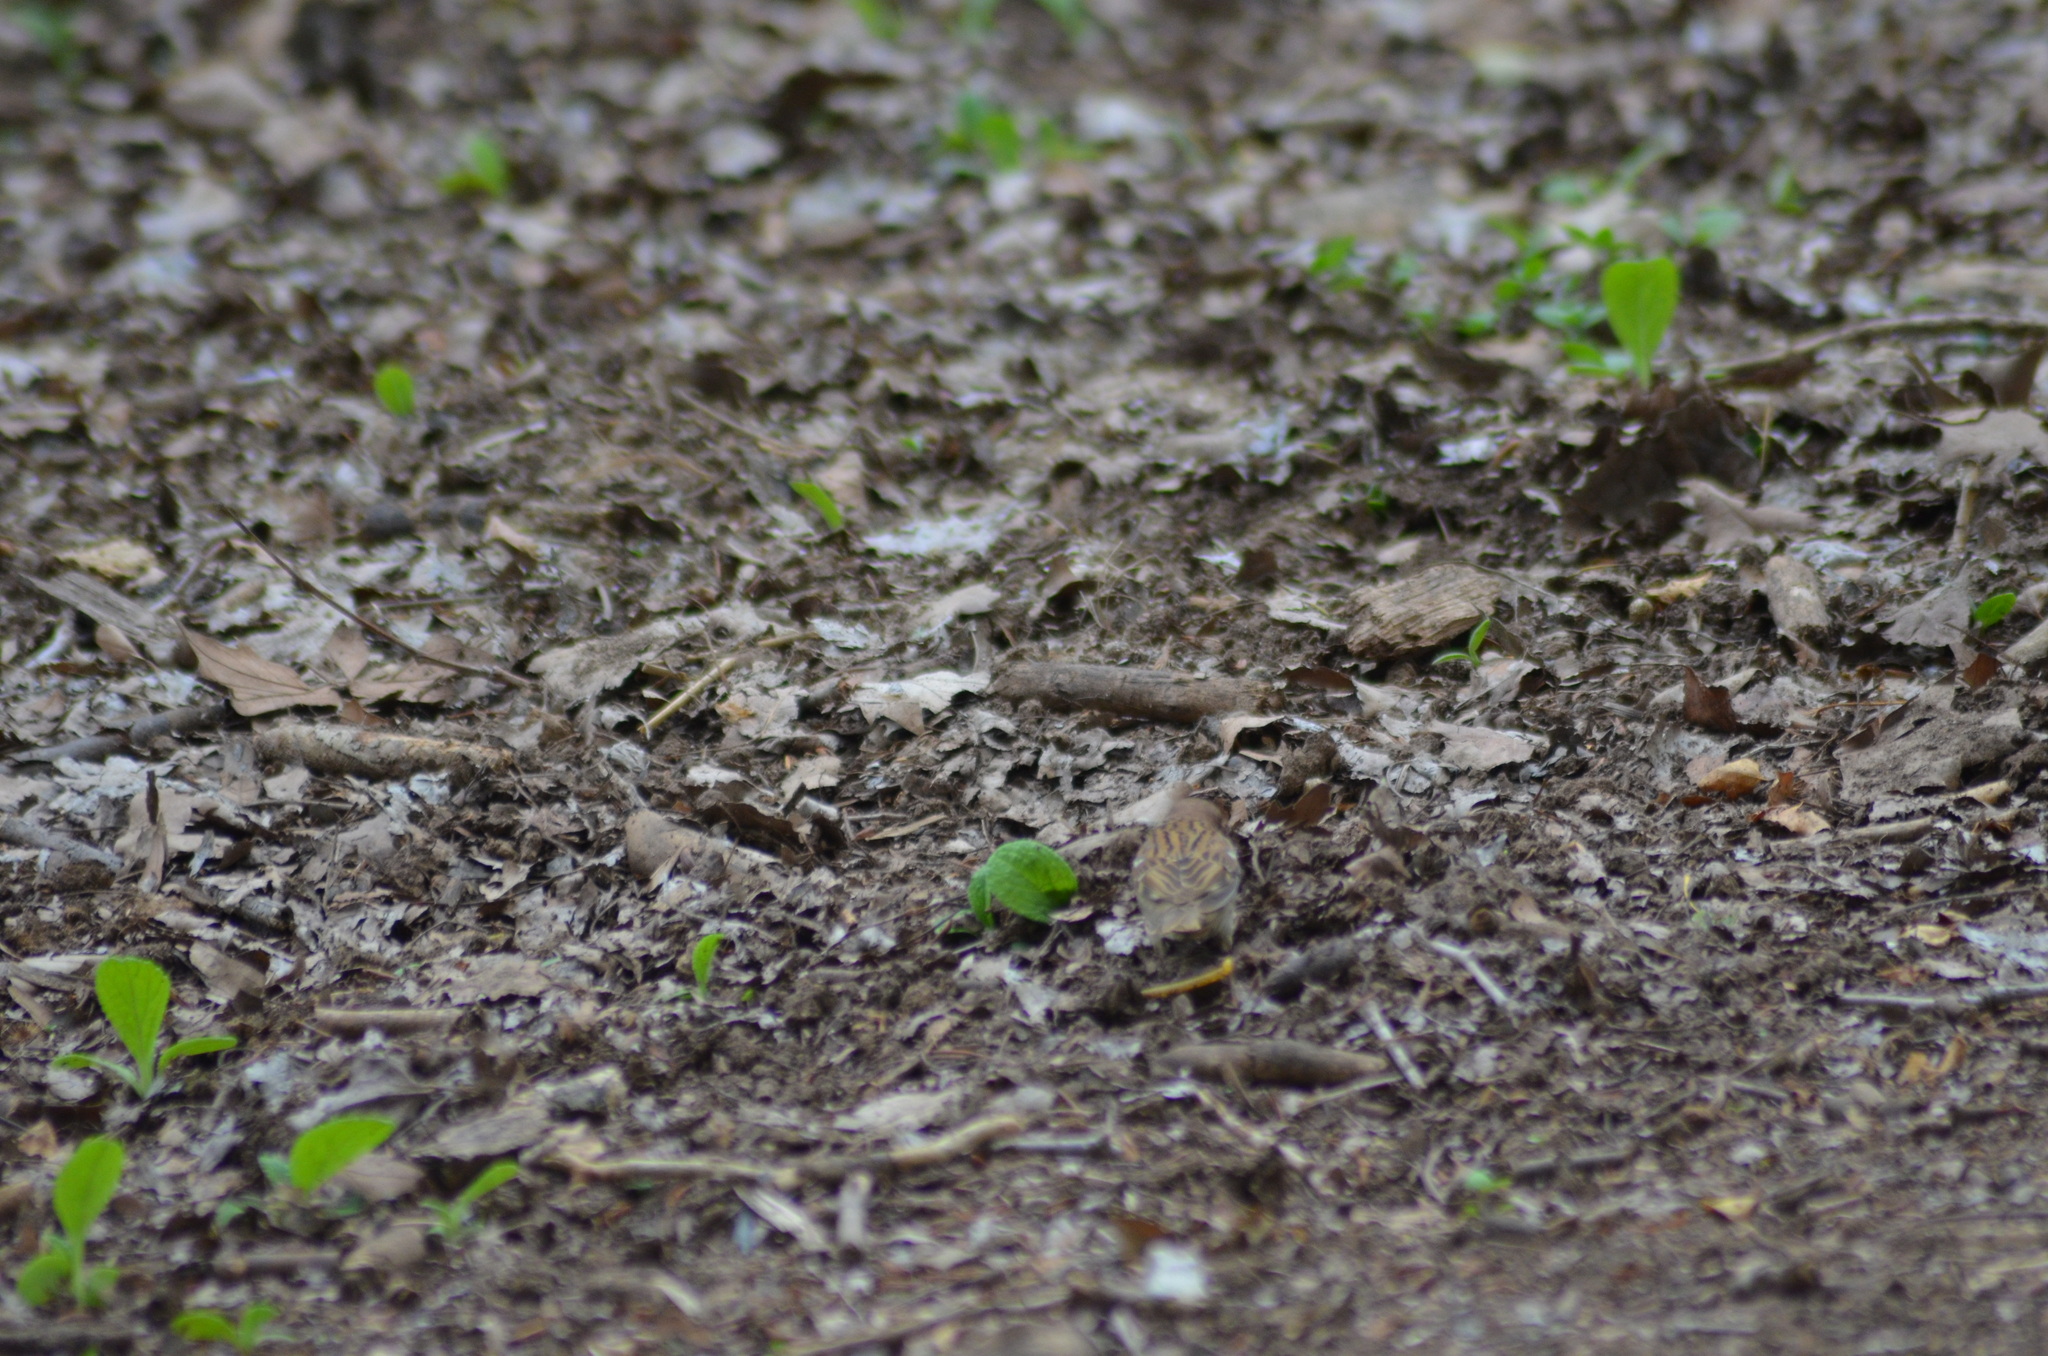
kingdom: Animalia
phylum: Chordata
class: Aves
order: Passeriformes
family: Passeridae
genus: Passer
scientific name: Passer montanus
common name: Eurasian tree sparrow
